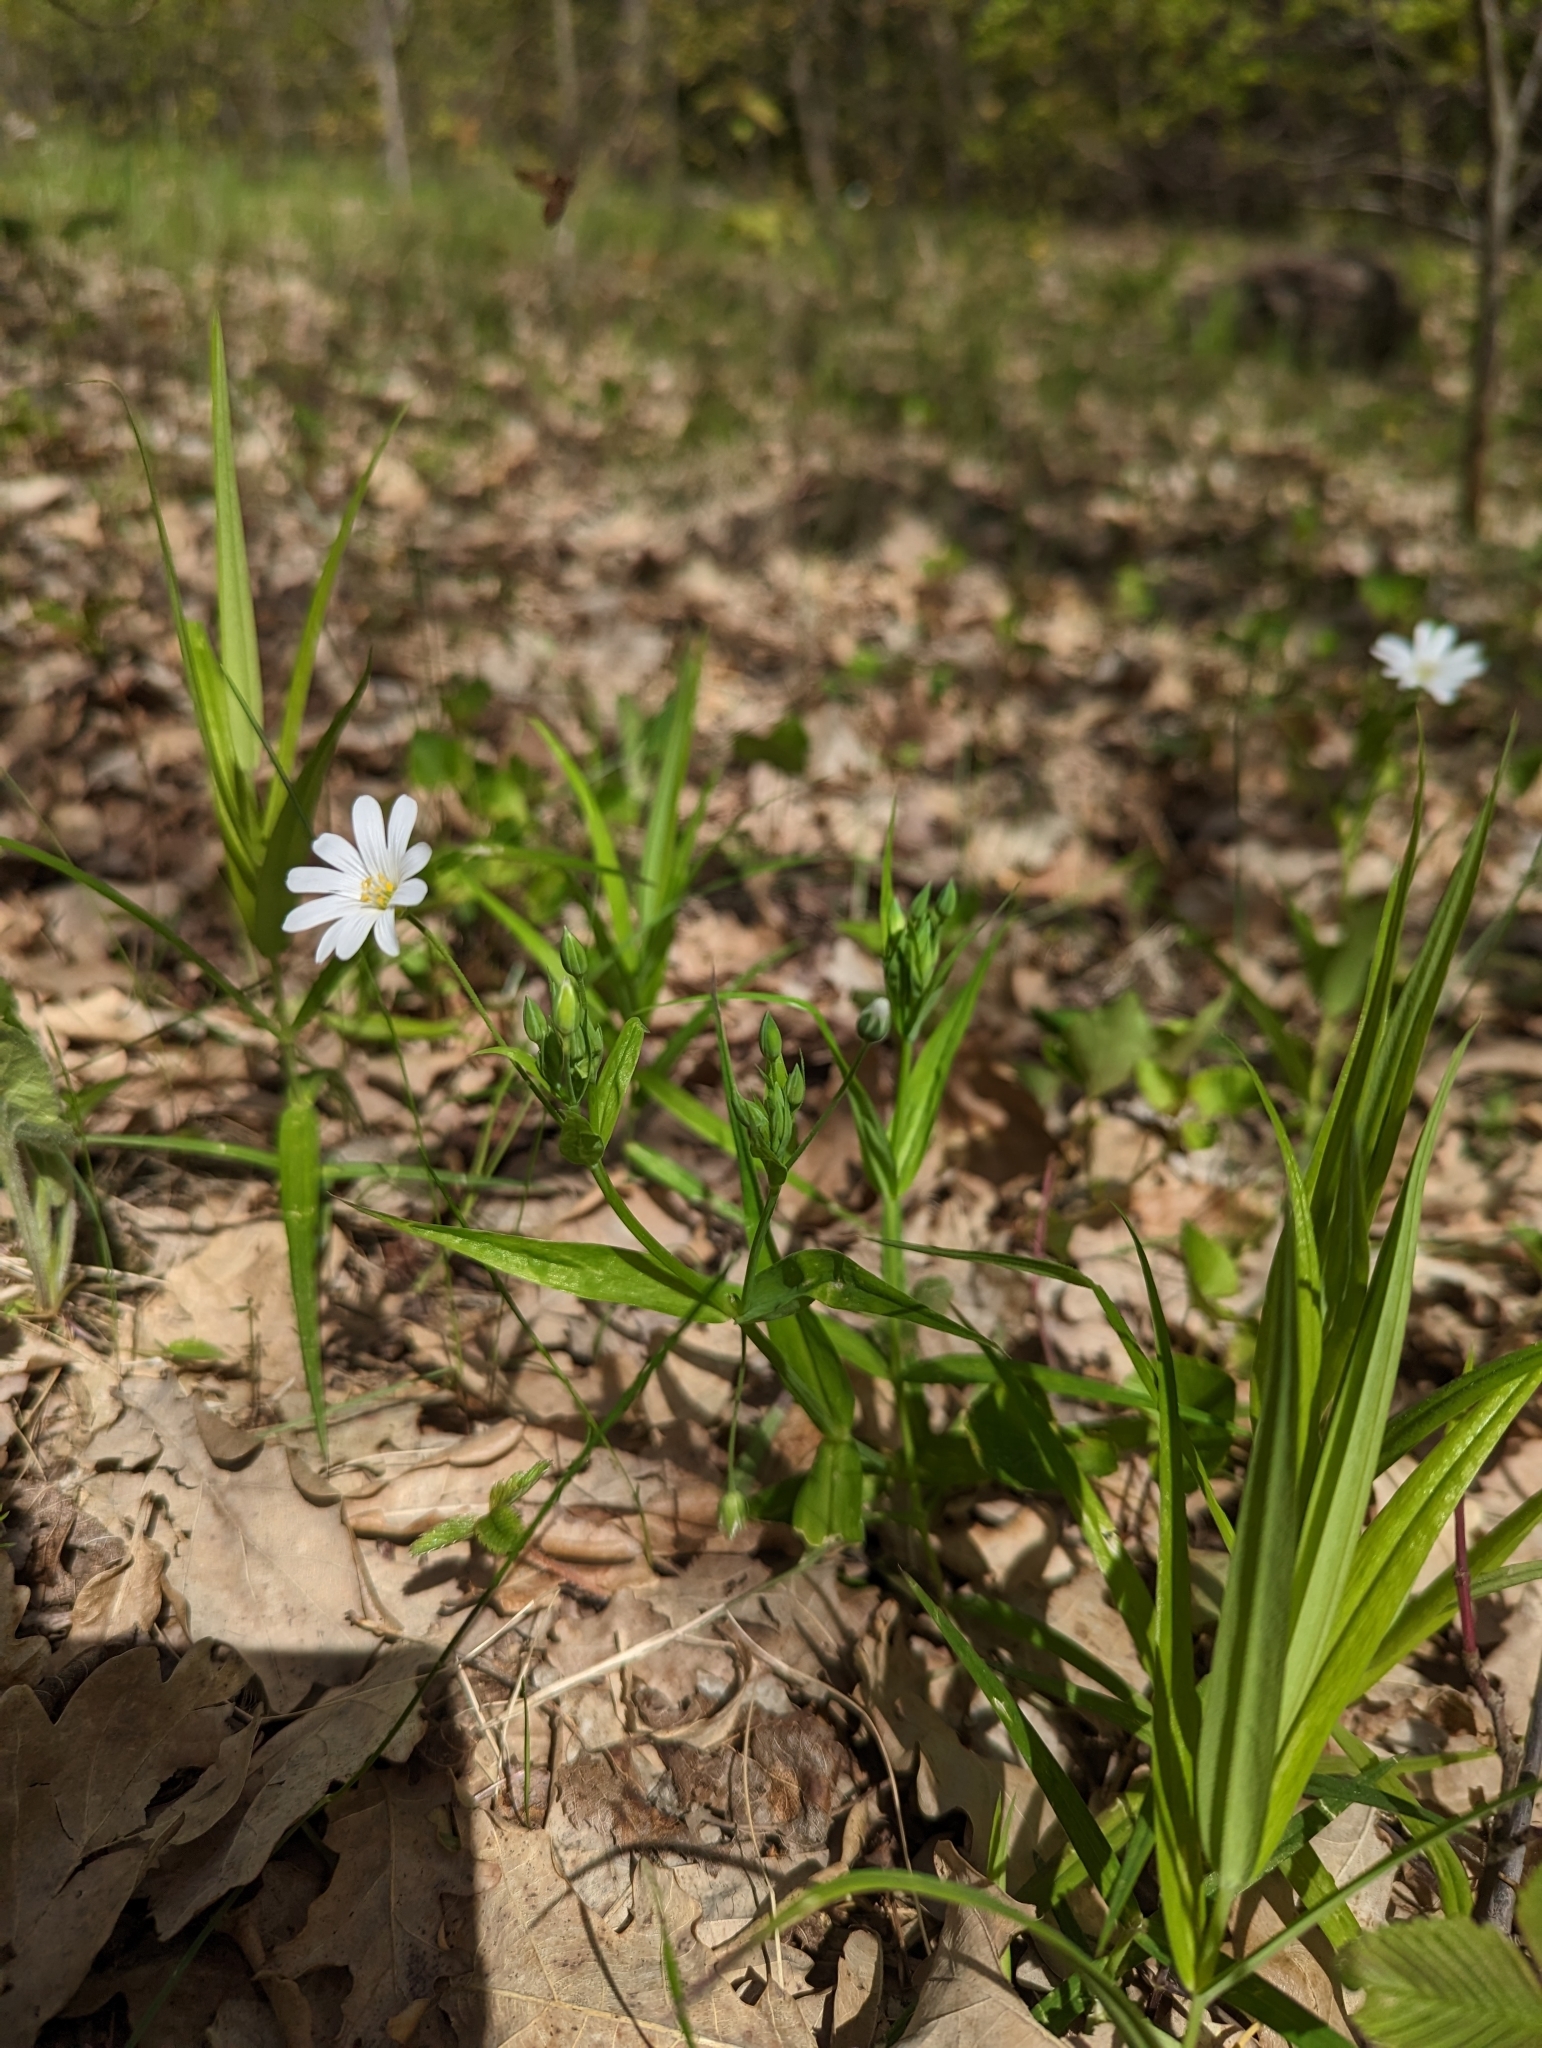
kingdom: Plantae
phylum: Tracheophyta
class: Magnoliopsida
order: Caryophyllales
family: Caryophyllaceae
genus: Rabelera
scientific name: Rabelera holostea
